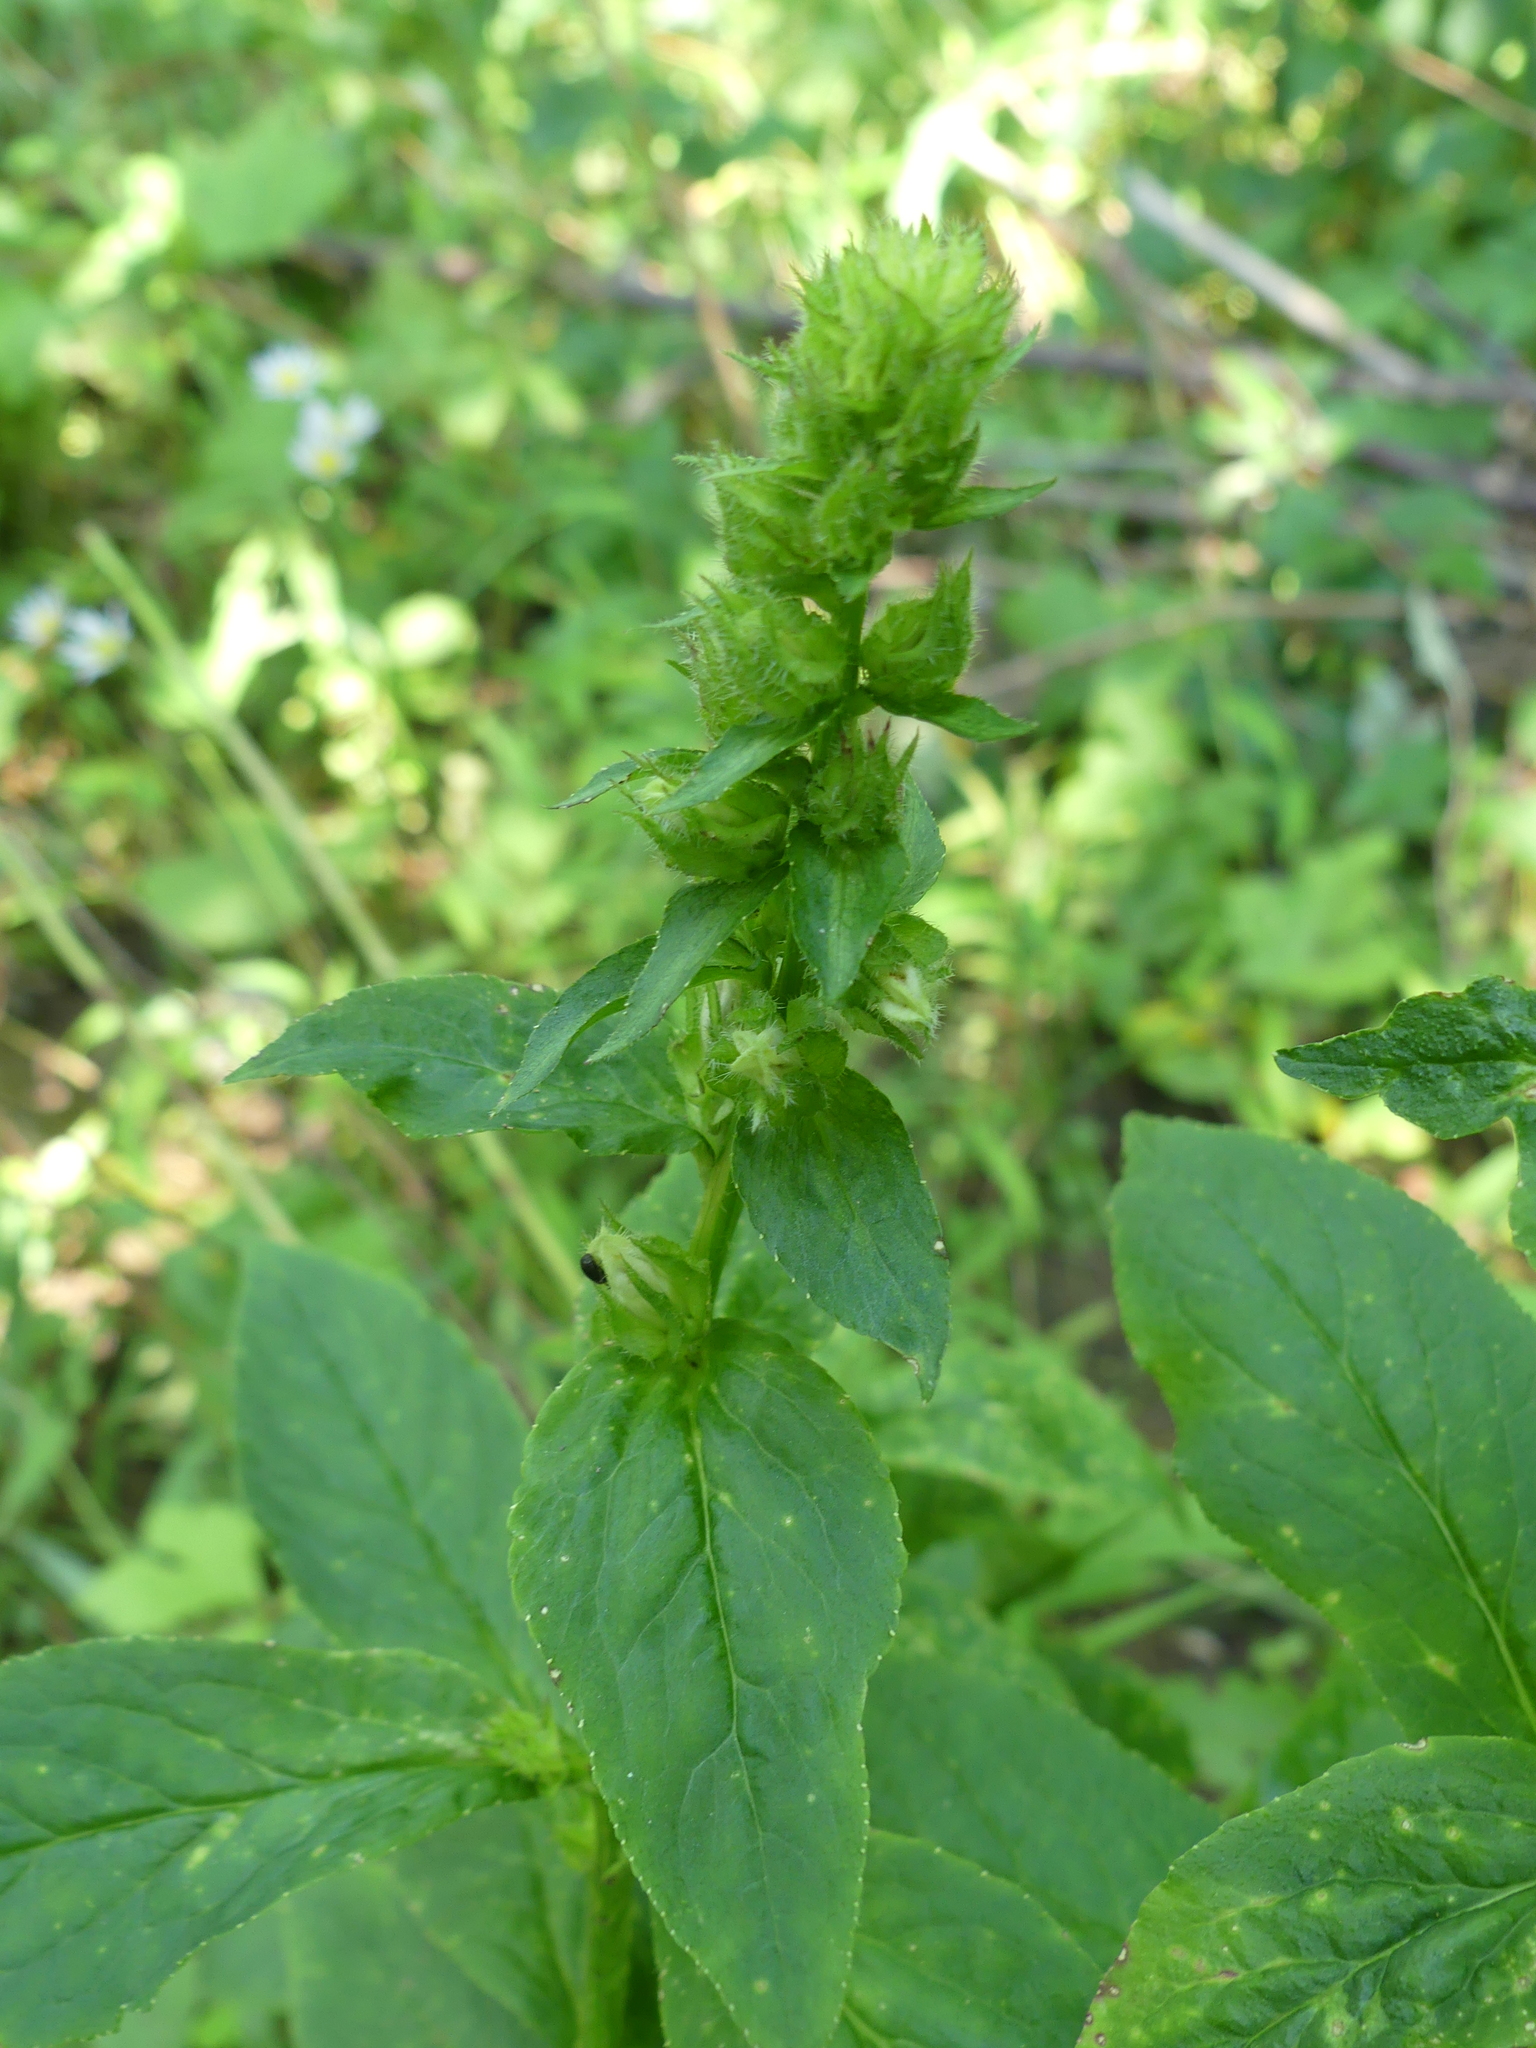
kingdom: Plantae
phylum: Tracheophyta
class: Magnoliopsida
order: Asterales
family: Campanulaceae
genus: Lobelia
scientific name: Lobelia siphilitica
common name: Great lobelia
